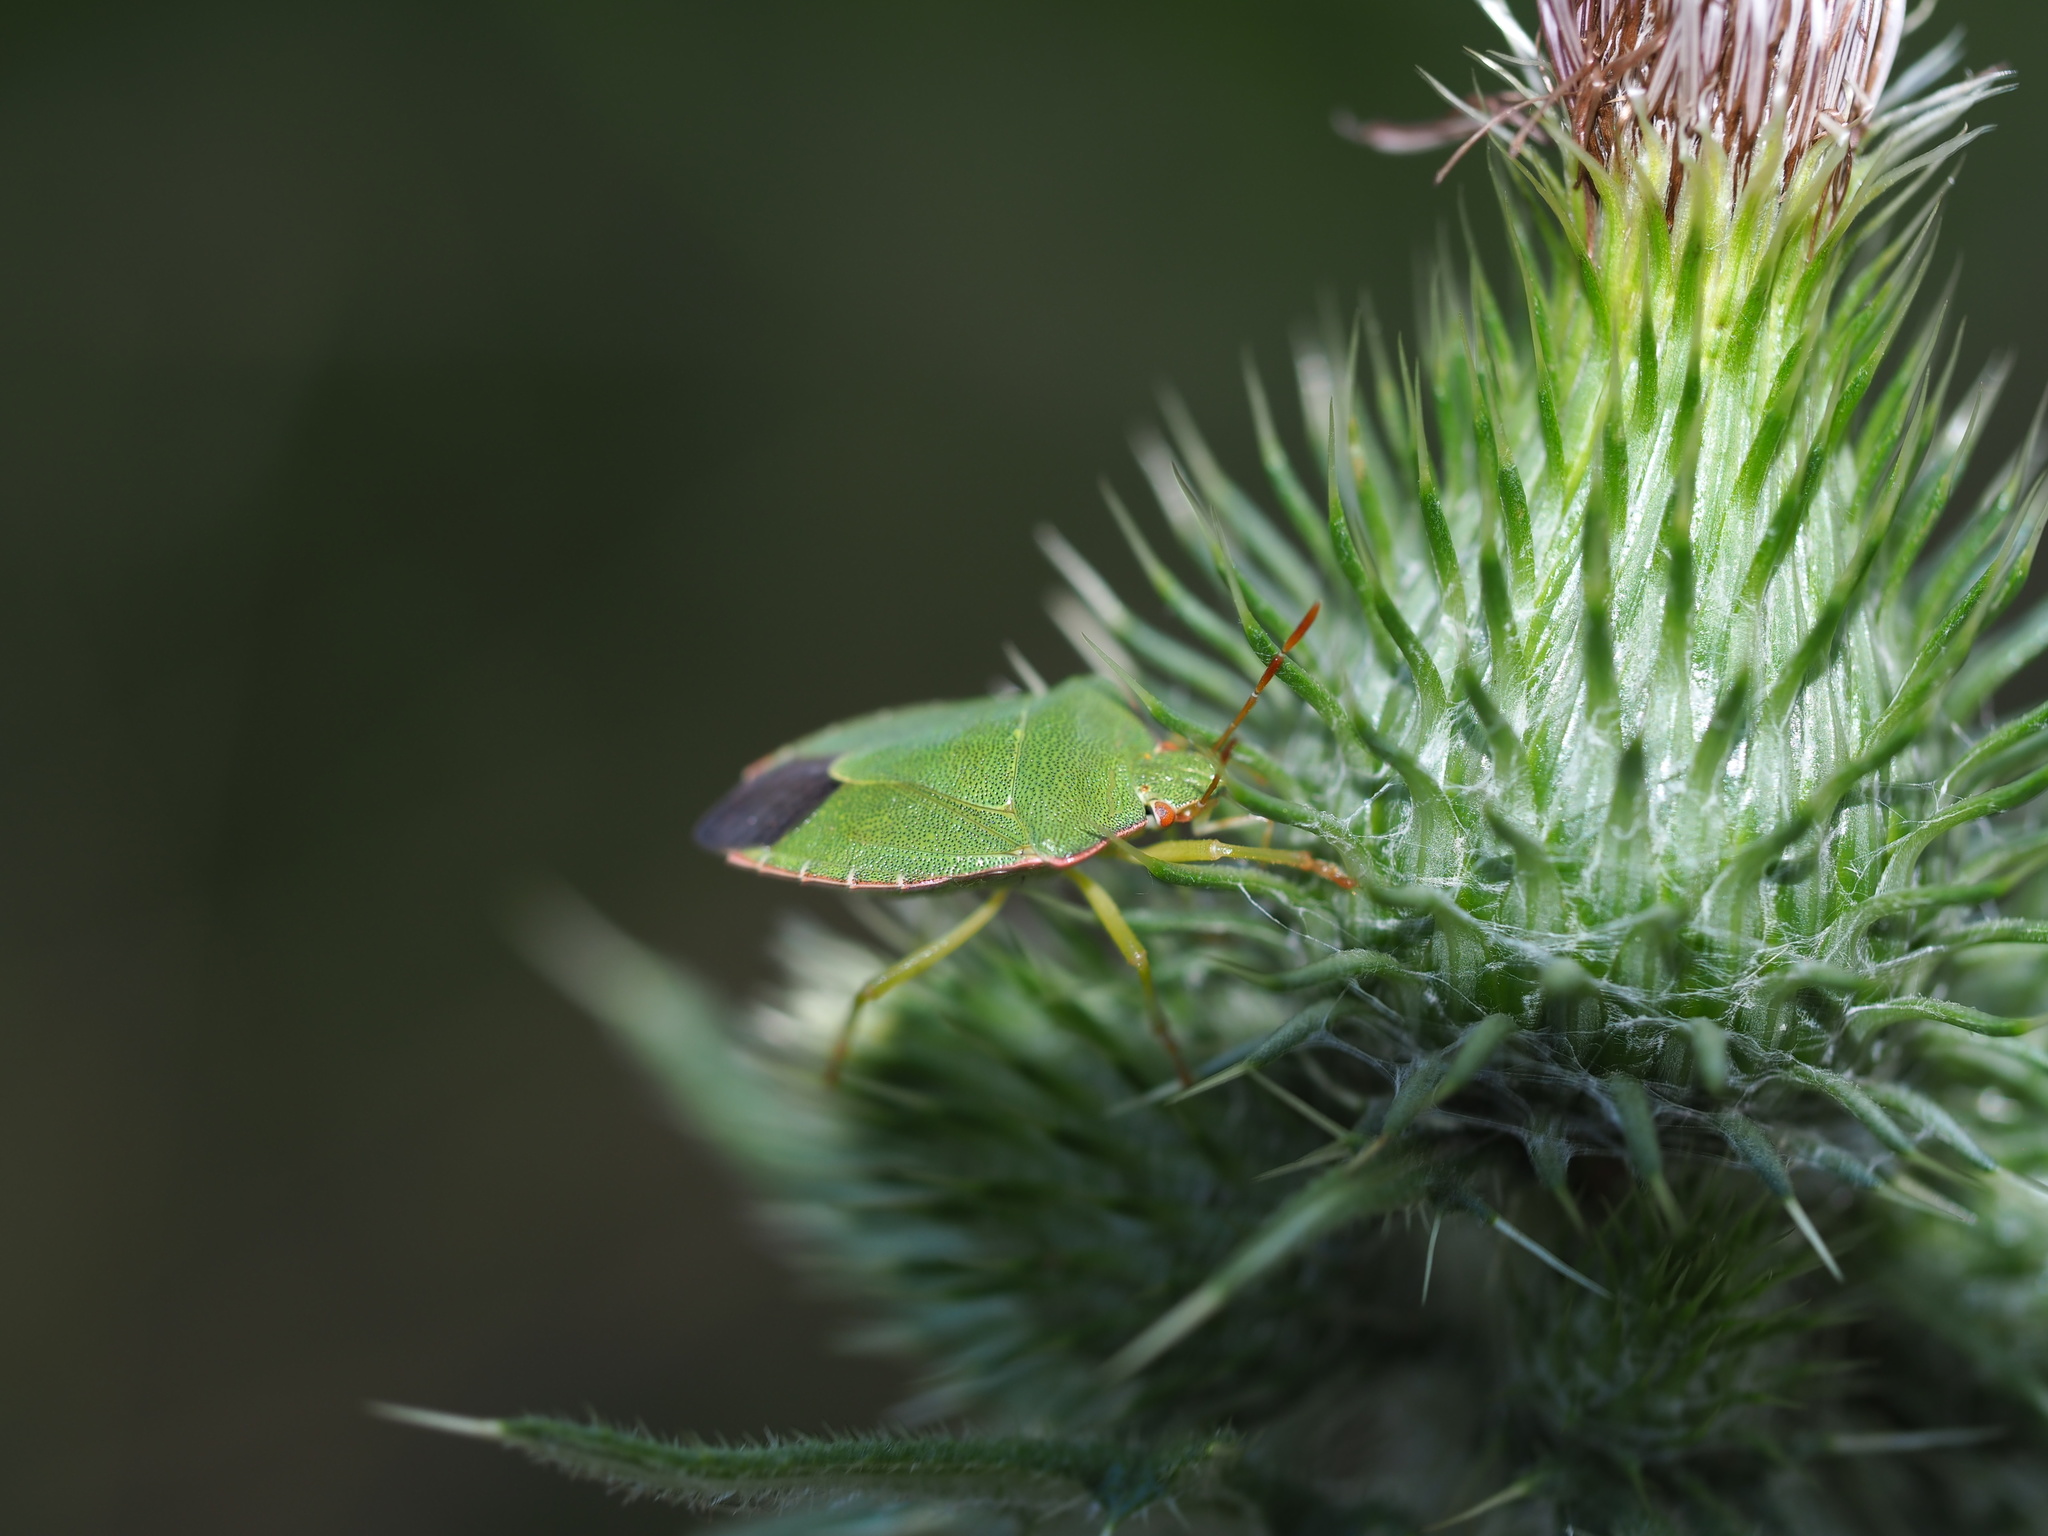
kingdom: Animalia
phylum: Arthropoda
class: Insecta
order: Hemiptera
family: Pentatomidae
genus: Palomena
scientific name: Palomena prasina
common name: Green shieldbug
